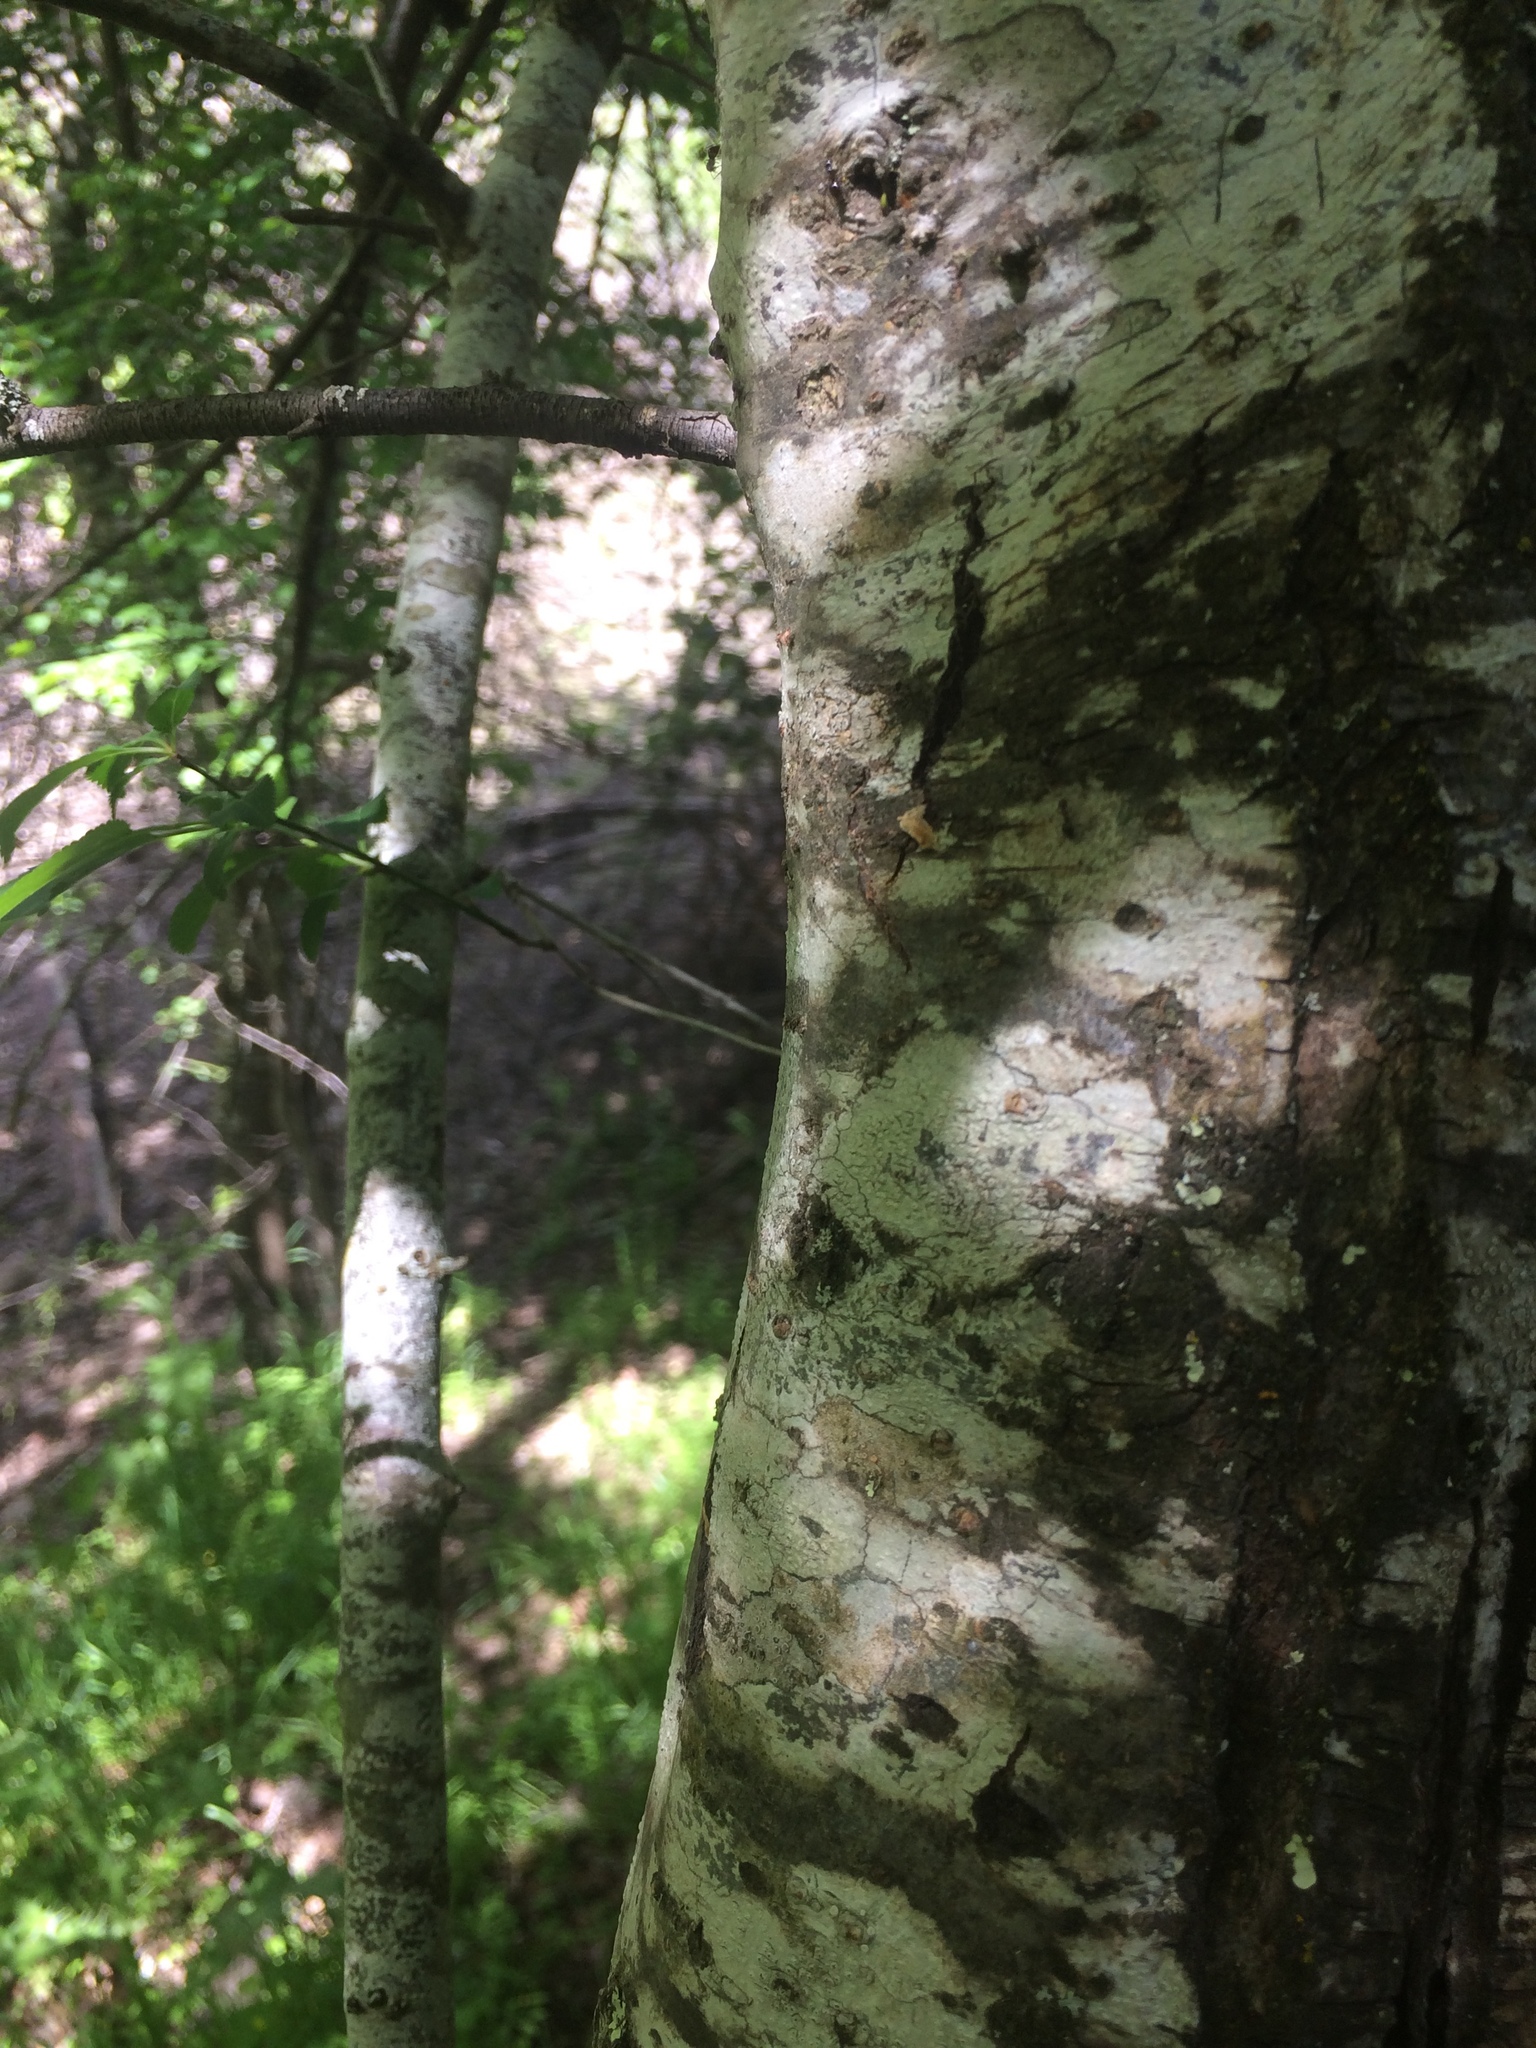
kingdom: Plantae
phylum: Tracheophyta
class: Magnoliopsida
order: Rosales
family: Rosaceae
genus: Prunus
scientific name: Prunus cerasifera
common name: Cherry plum
